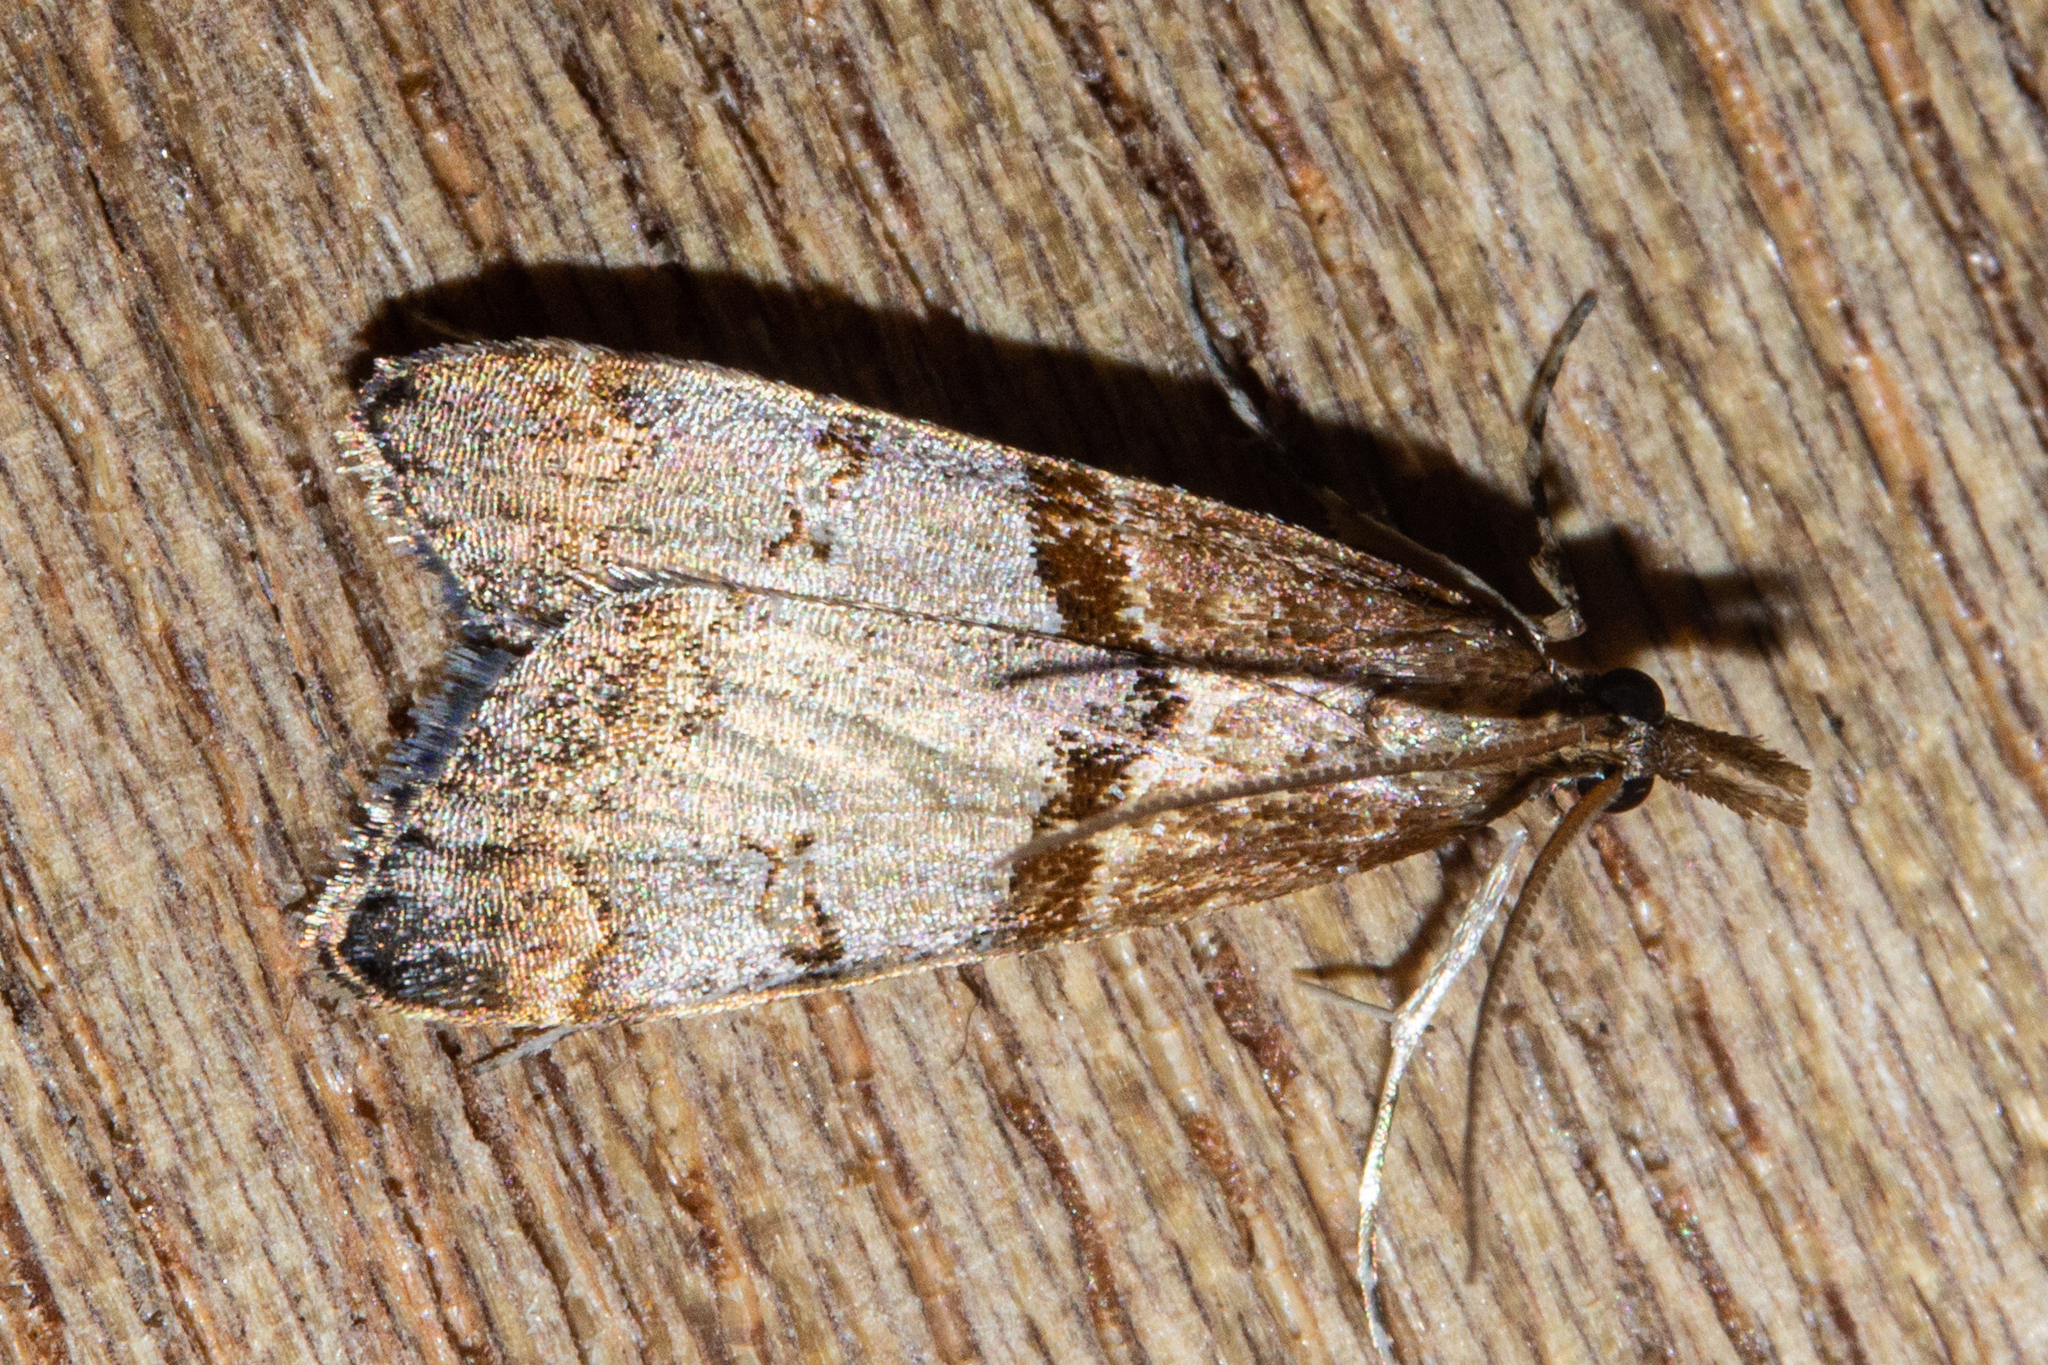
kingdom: Animalia
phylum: Arthropoda
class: Insecta
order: Lepidoptera
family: Crambidae
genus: Antiscopa
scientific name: Antiscopa epicomia
